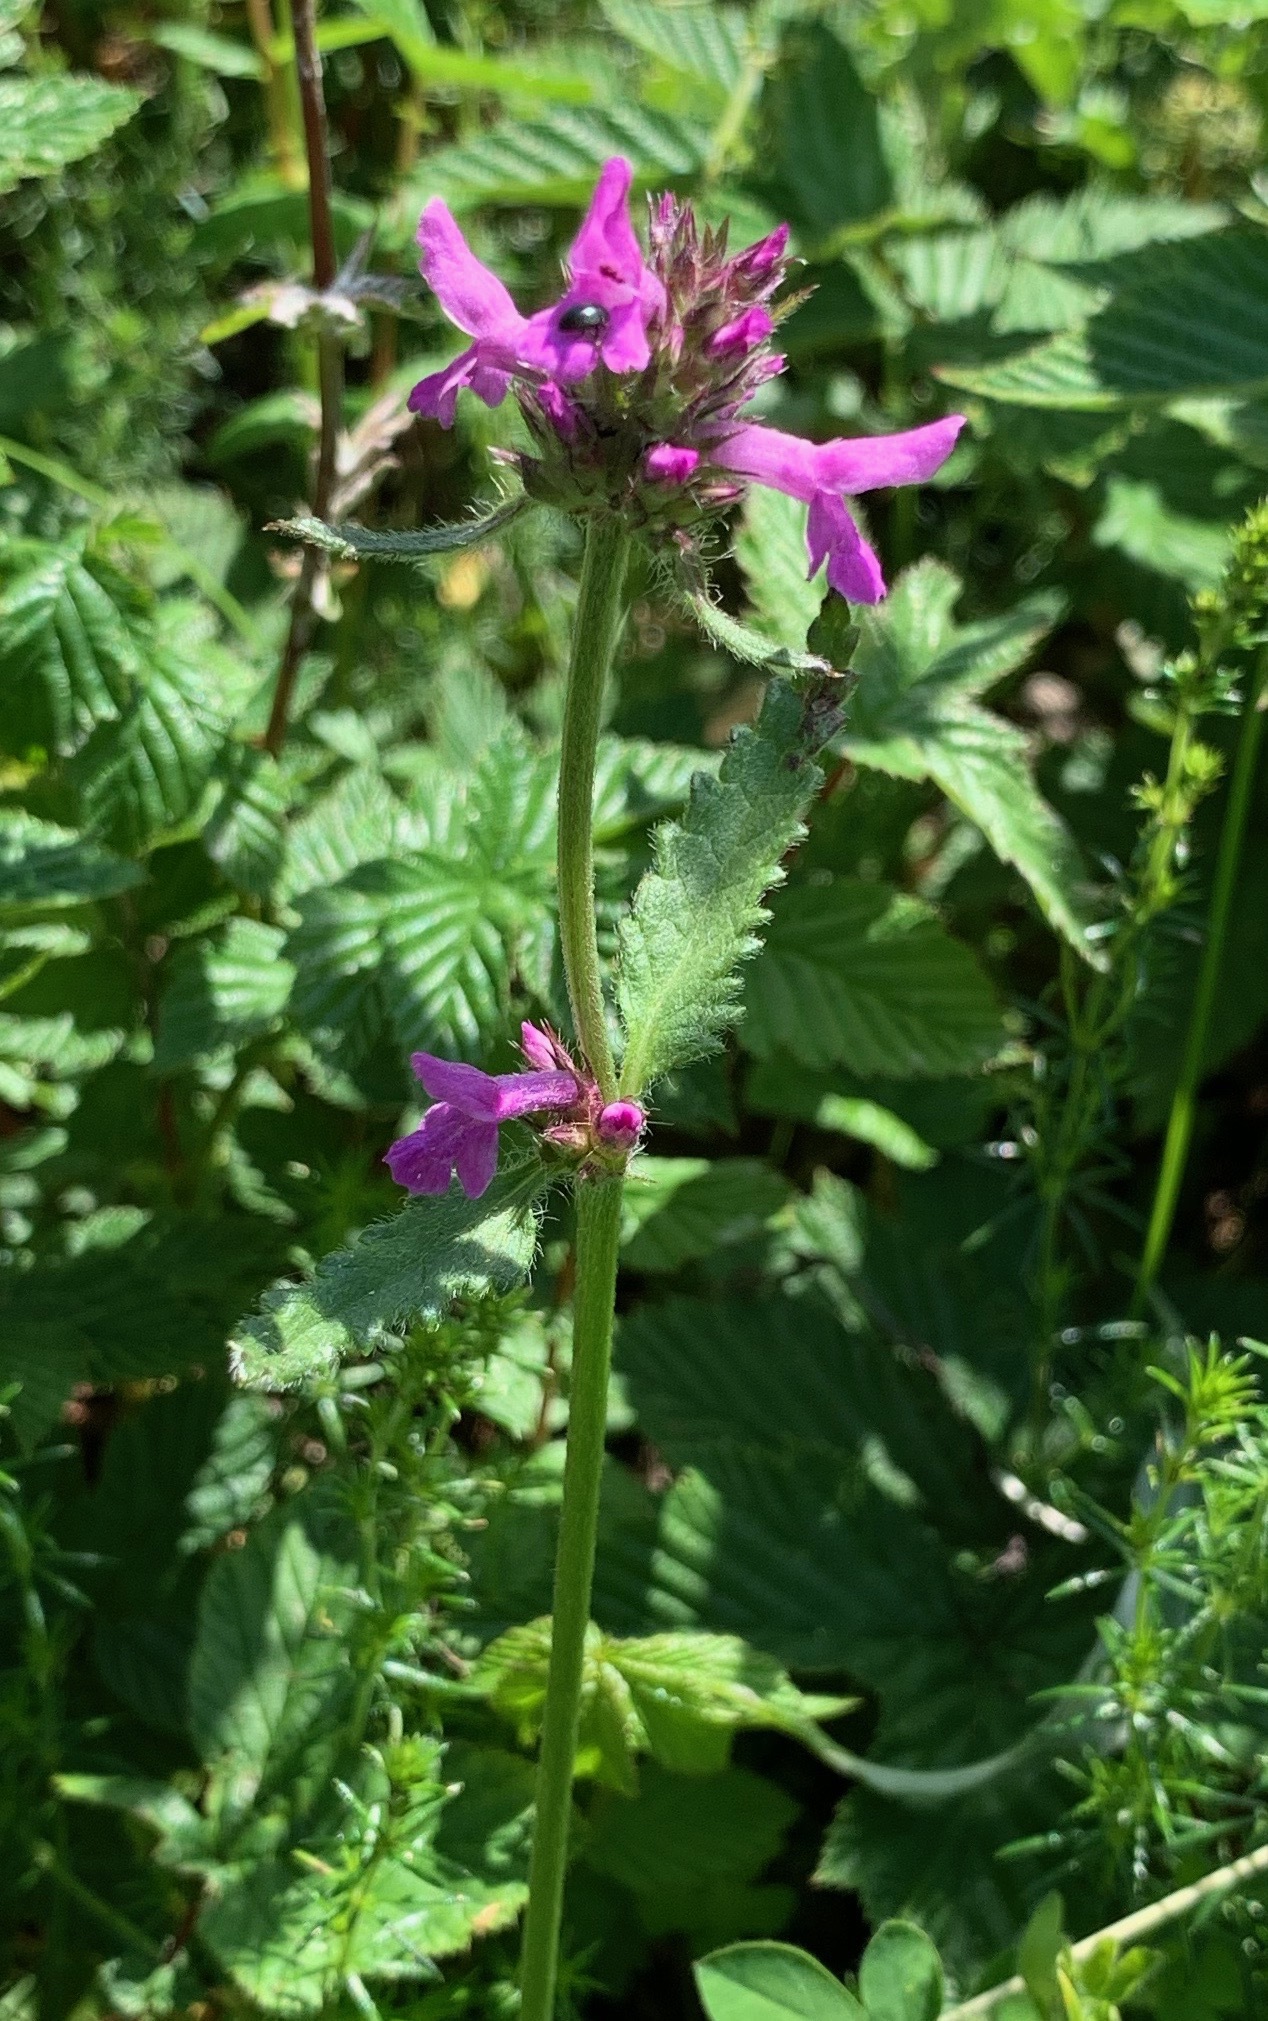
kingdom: Plantae
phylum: Tracheophyta
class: Magnoliopsida
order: Lamiales
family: Lamiaceae
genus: Betonica
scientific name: Betonica officinalis
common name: Bishop's-wort
